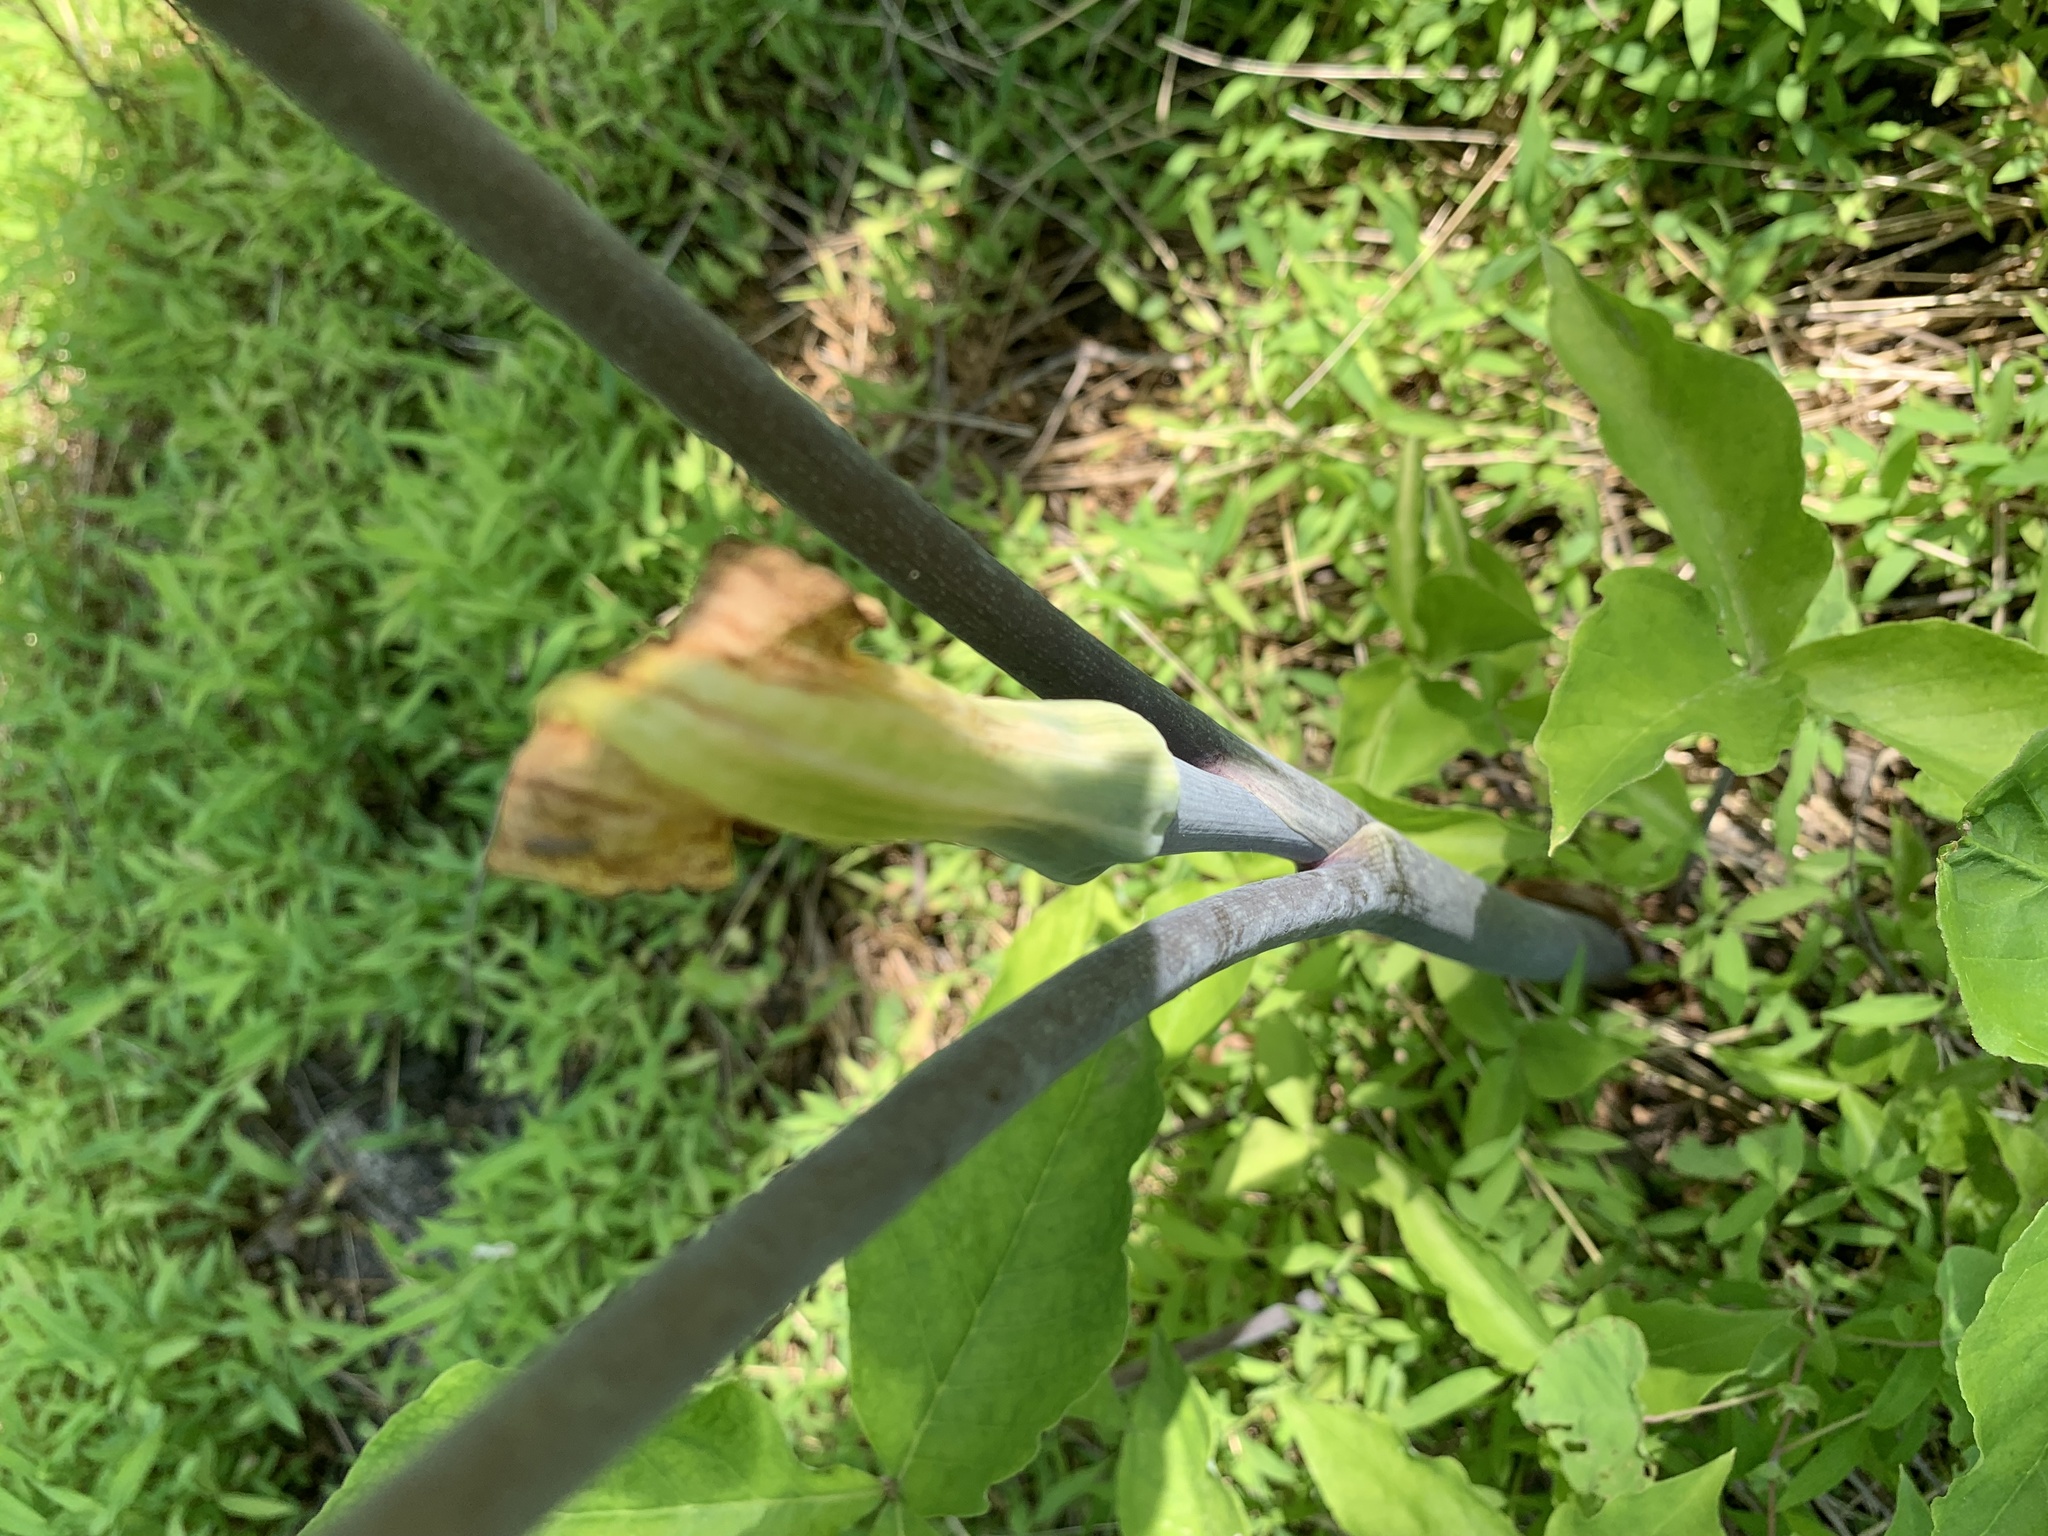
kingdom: Plantae
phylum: Tracheophyta
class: Liliopsida
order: Alismatales
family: Araceae
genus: Arisaema
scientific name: Arisaema triphyllum
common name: Jack-in-the-pulpit
